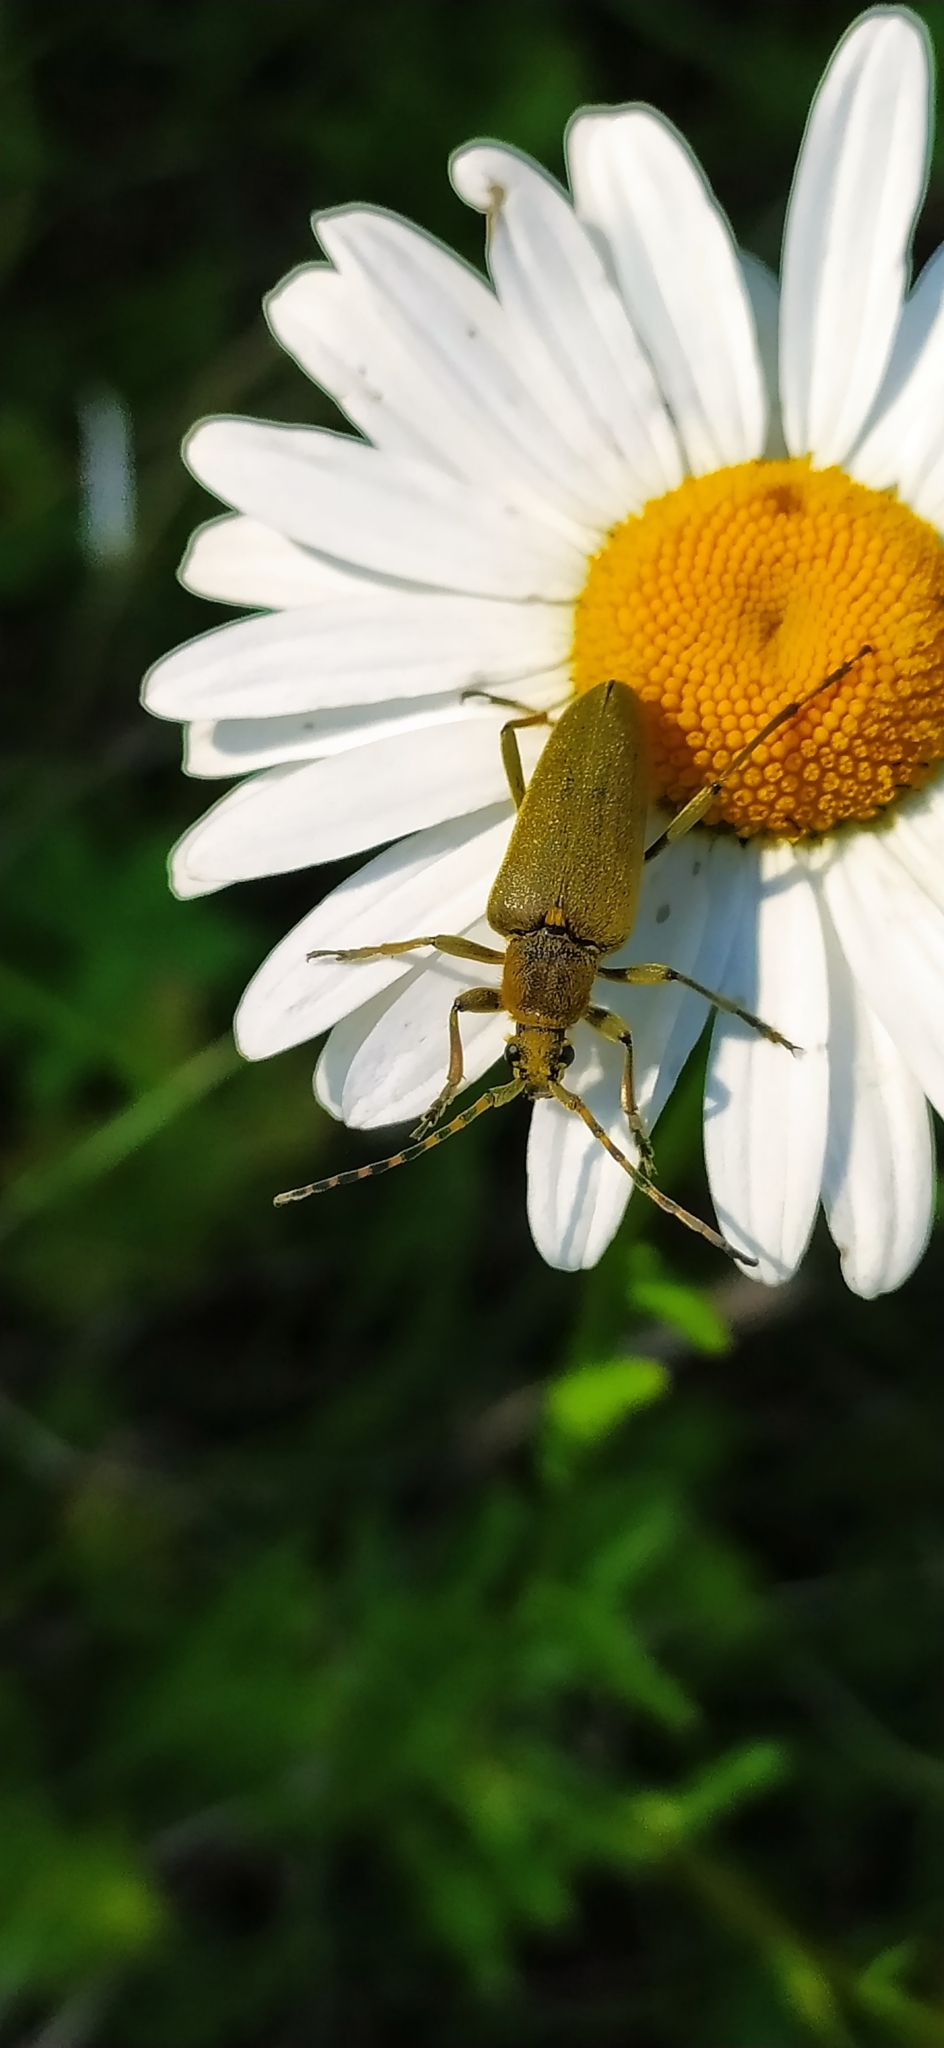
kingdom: Animalia
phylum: Arthropoda
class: Insecta
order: Coleoptera
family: Cerambycidae
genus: Lepturobosca
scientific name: Lepturobosca virens
